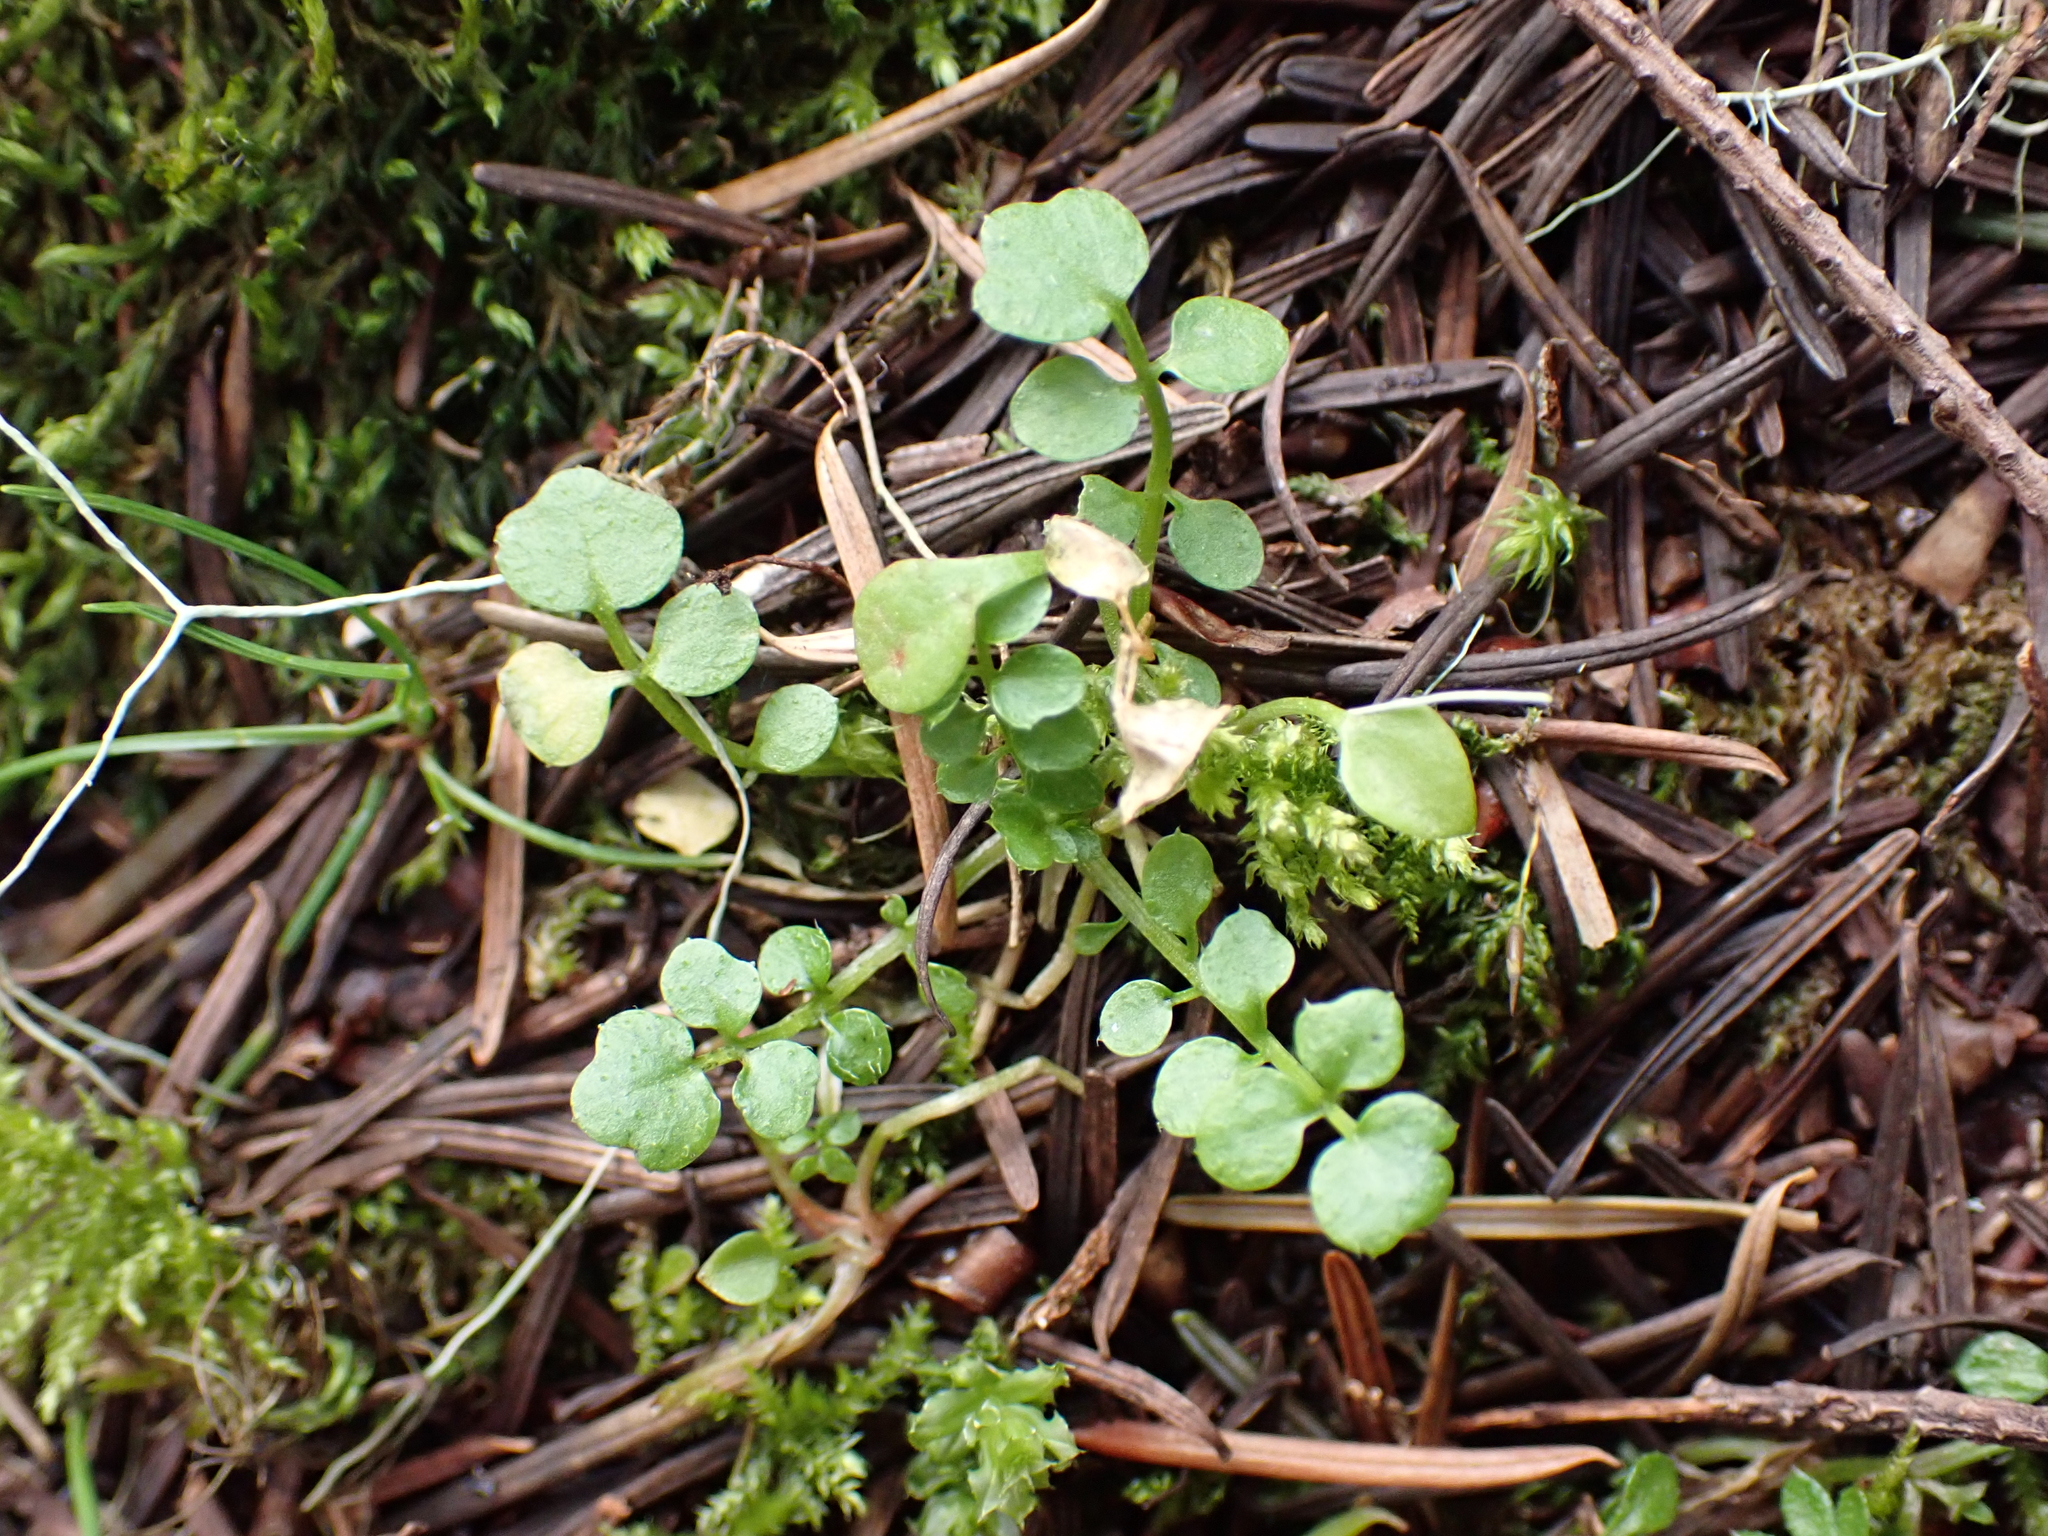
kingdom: Plantae
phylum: Tracheophyta
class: Magnoliopsida
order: Brassicales
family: Brassicaceae
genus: Cardamine
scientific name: Cardamine oligosperma
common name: Idaho bittercress
